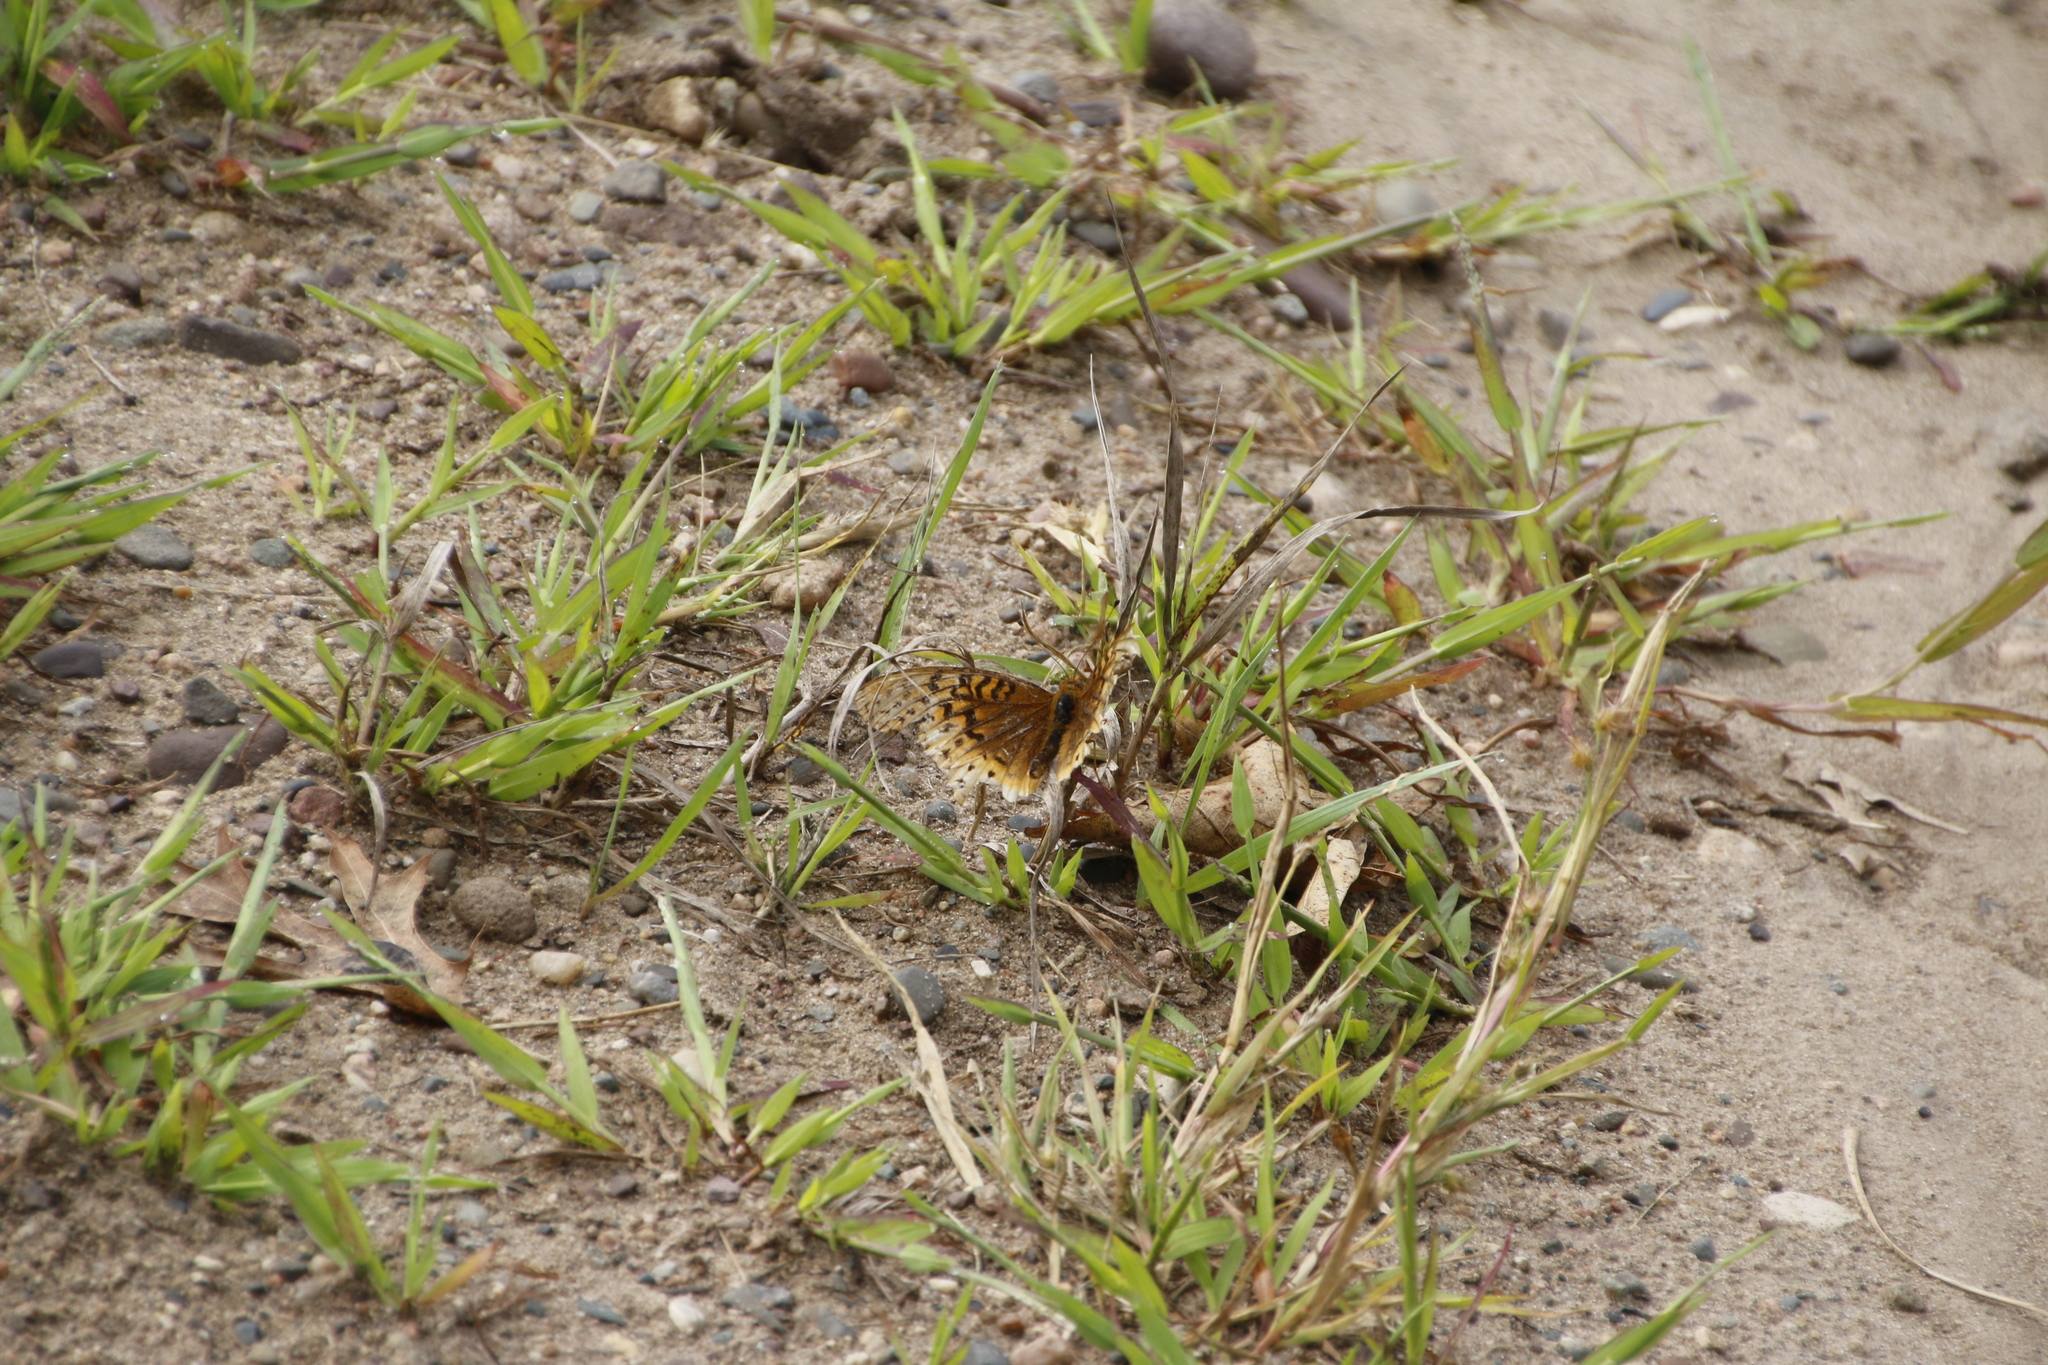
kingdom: Animalia
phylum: Arthropoda
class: Insecta
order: Lepidoptera
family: Nymphalidae
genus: Speyeria
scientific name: Speyeria cybele
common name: Great spangled fritillary
